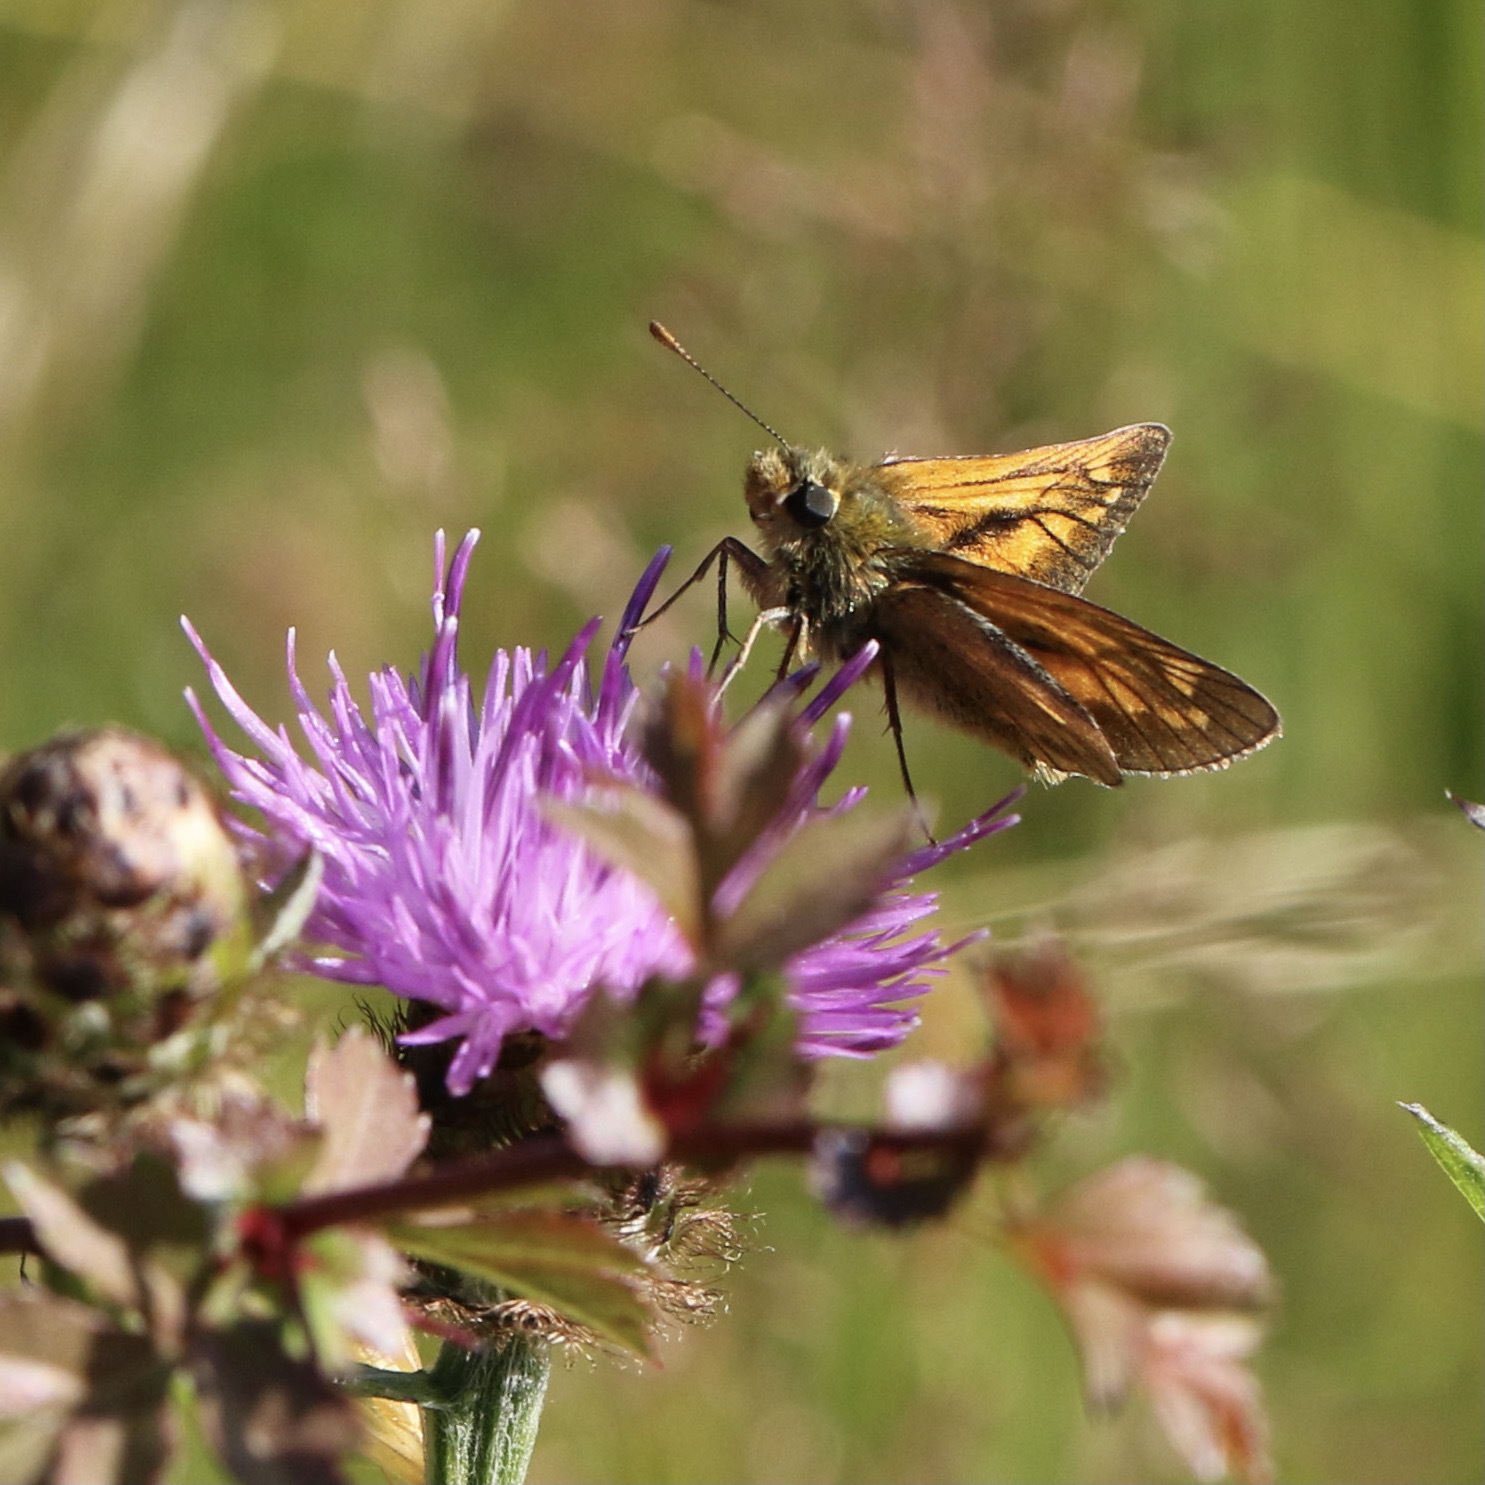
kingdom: Animalia
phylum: Arthropoda
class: Insecta
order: Lepidoptera
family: Hesperiidae
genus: Ochlodes
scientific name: Ochlodes venata
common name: Large skipper
